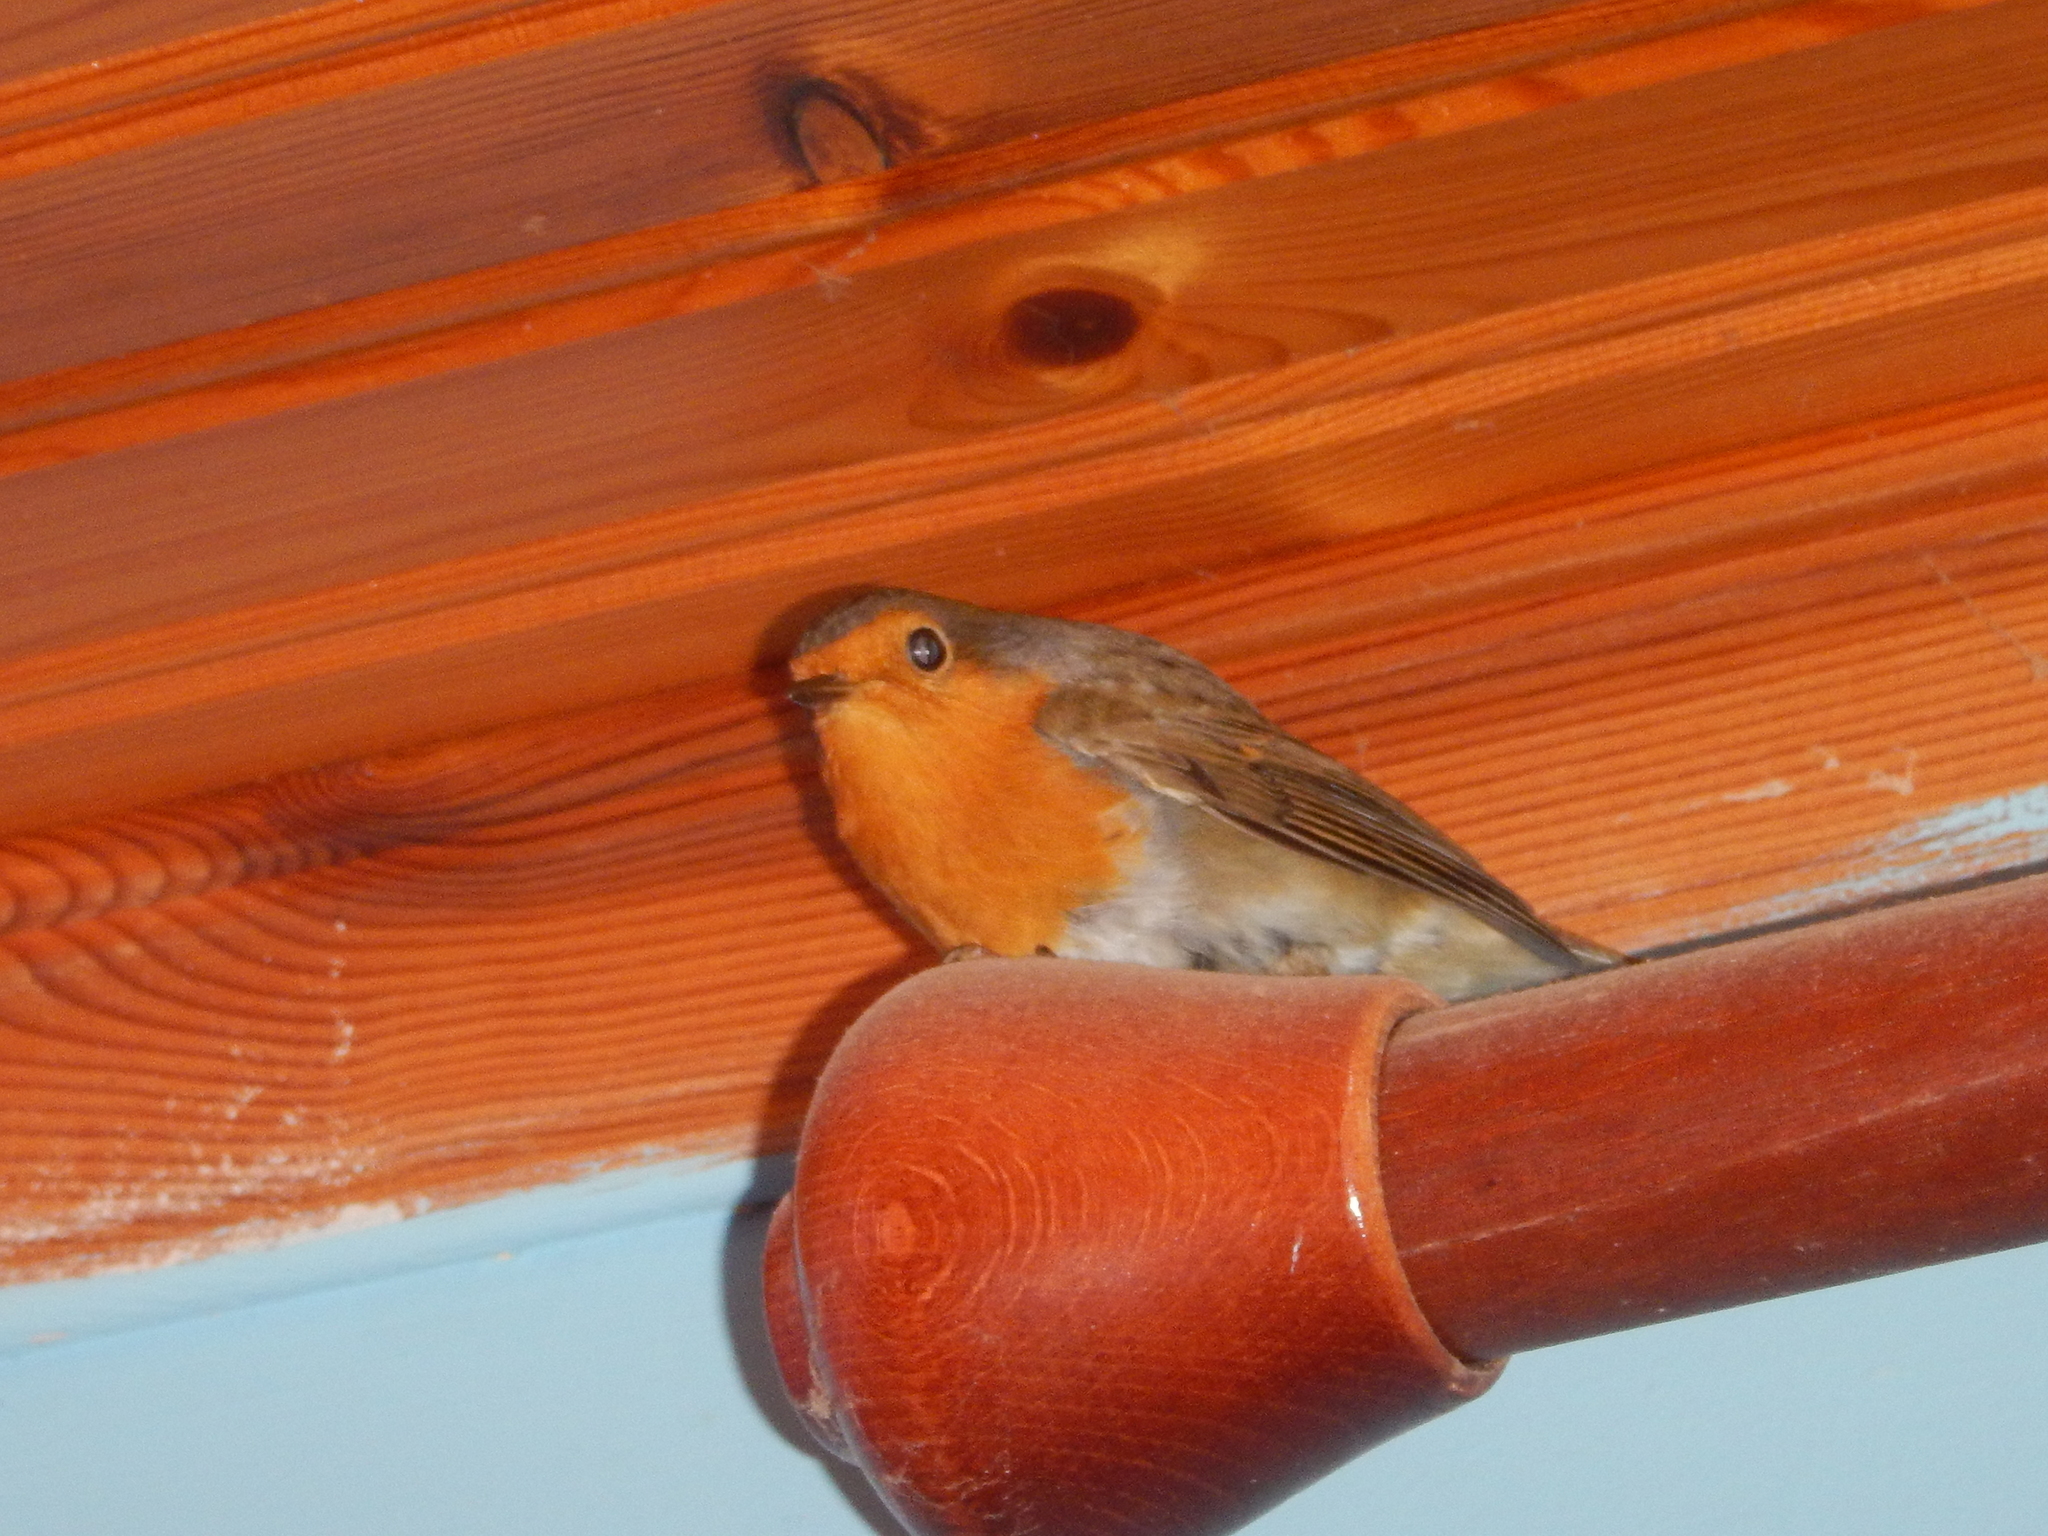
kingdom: Animalia
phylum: Chordata
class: Aves
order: Passeriformes
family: Muscicapidae
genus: Erithacus
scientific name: Erithacus rubecula
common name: European robin
